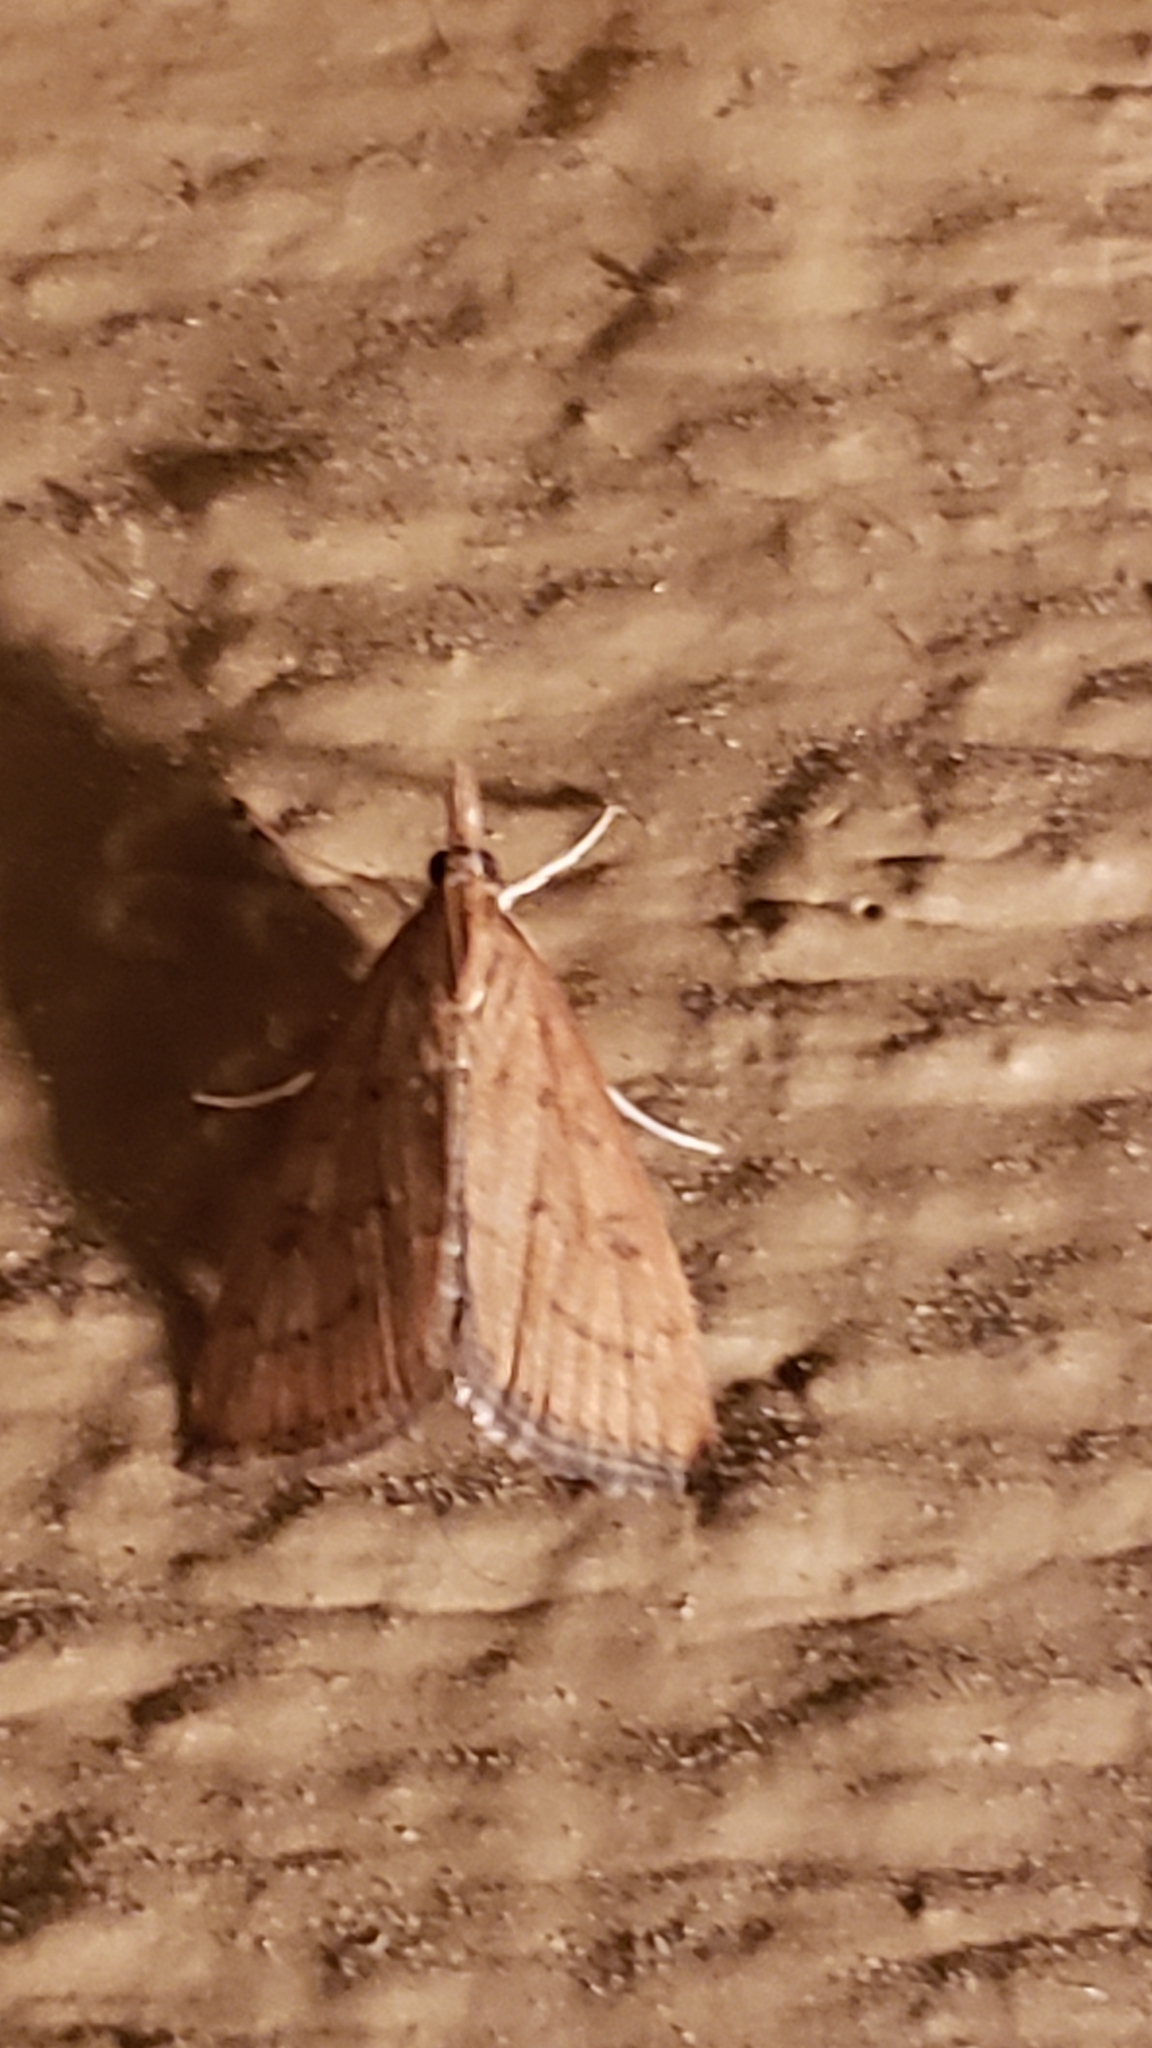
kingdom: Animalia
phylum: Arthropoda
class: Insecta
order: Lepidoptera
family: Crambidae
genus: Udea
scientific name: Udea rubigalis
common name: Celery leaftier moth
